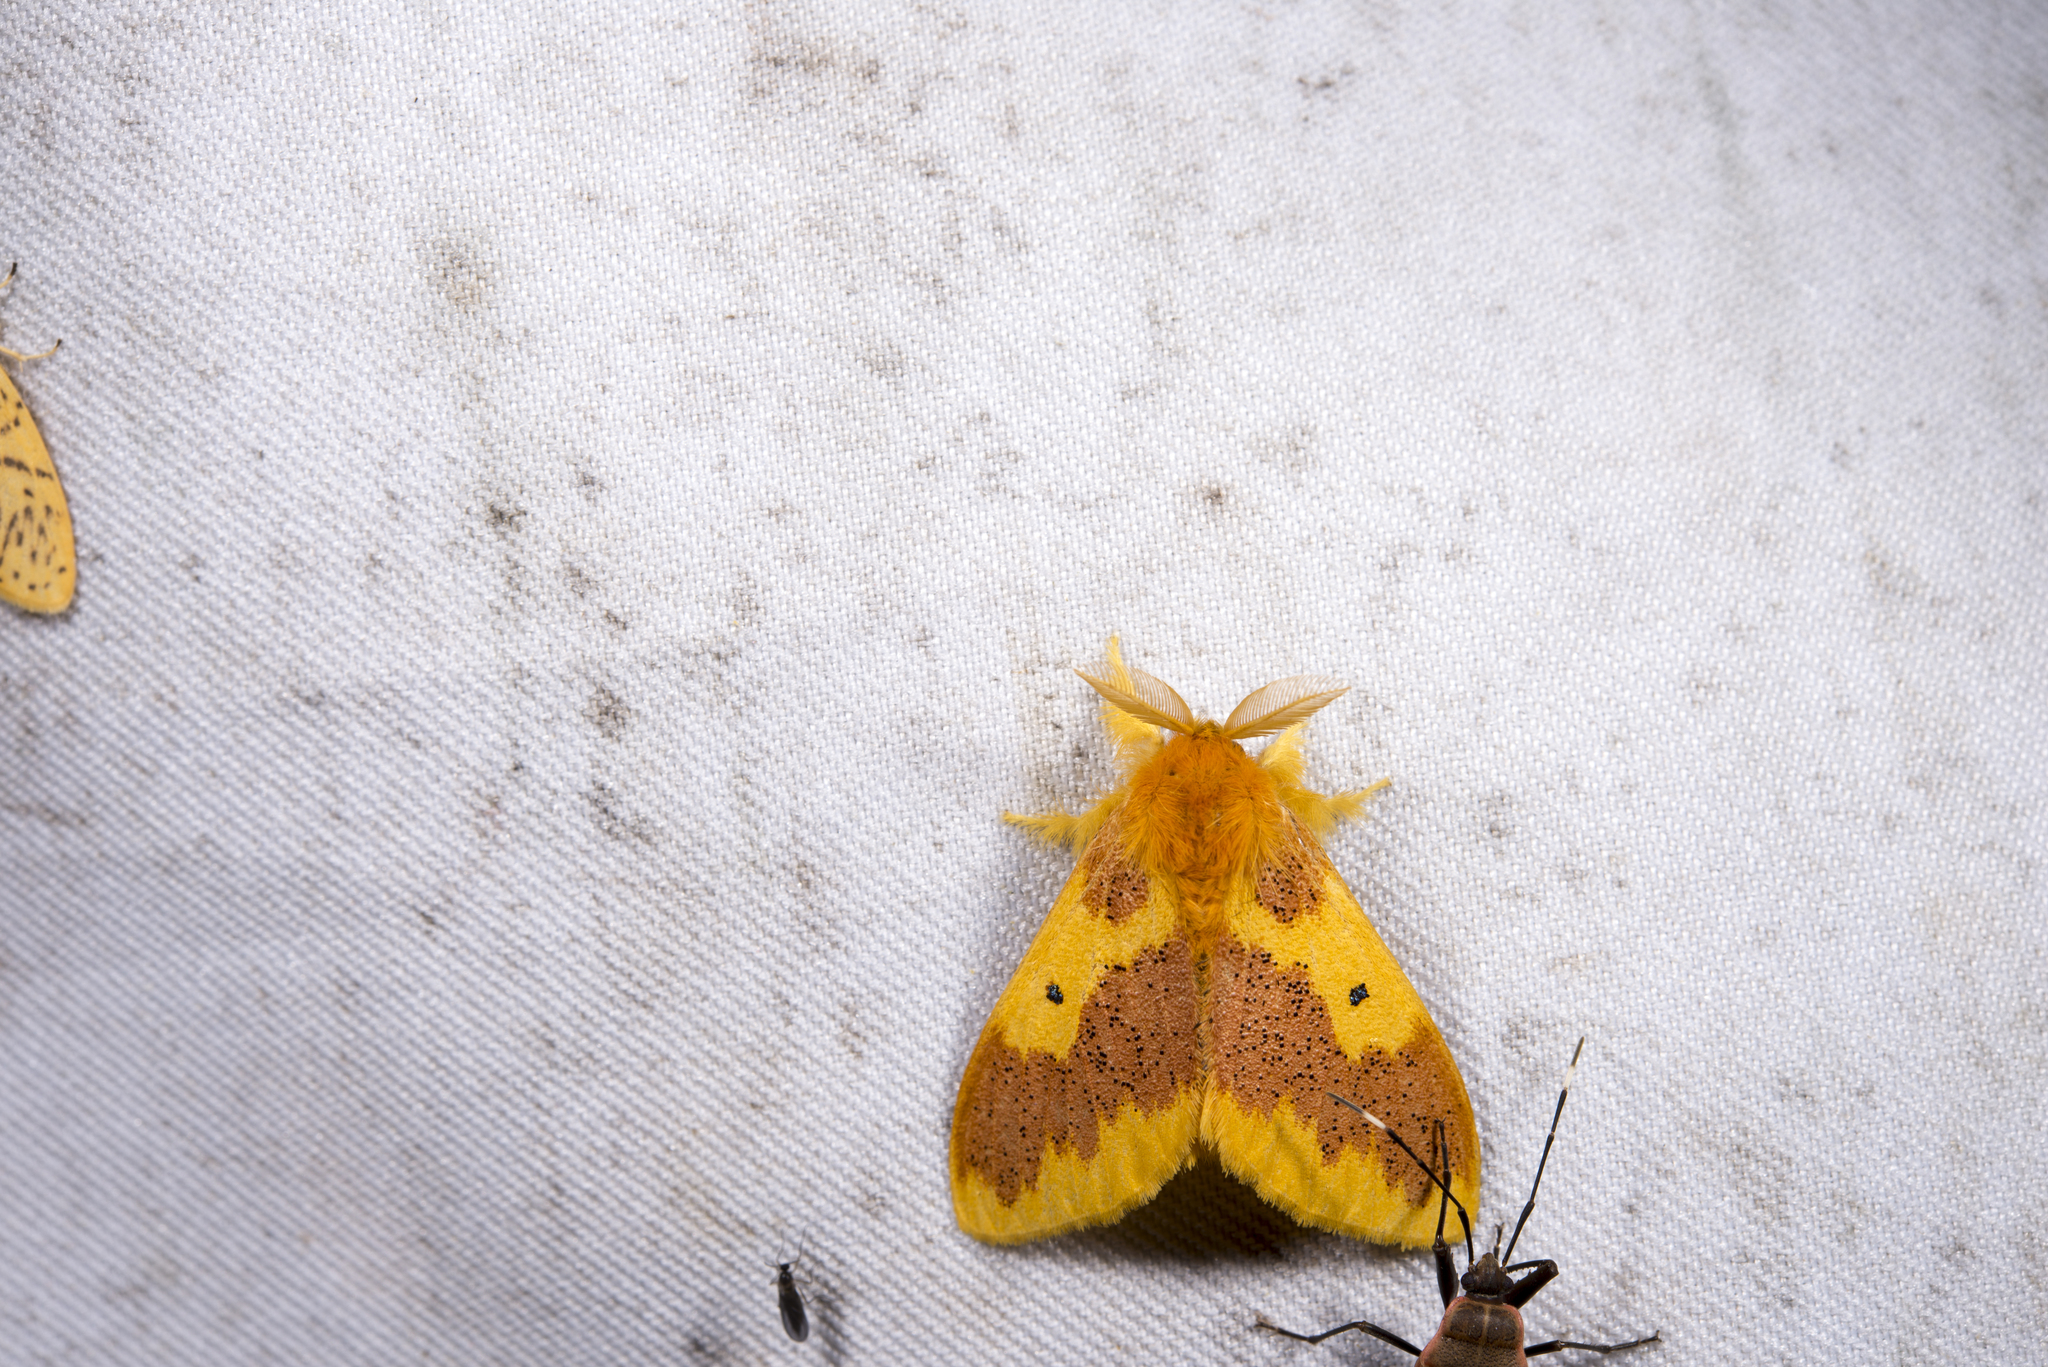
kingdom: Animalia
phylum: Arthropoda
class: Insecta
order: Lepidoptera
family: Erebidae
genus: Euproctis
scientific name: Euproctis staudingeri
